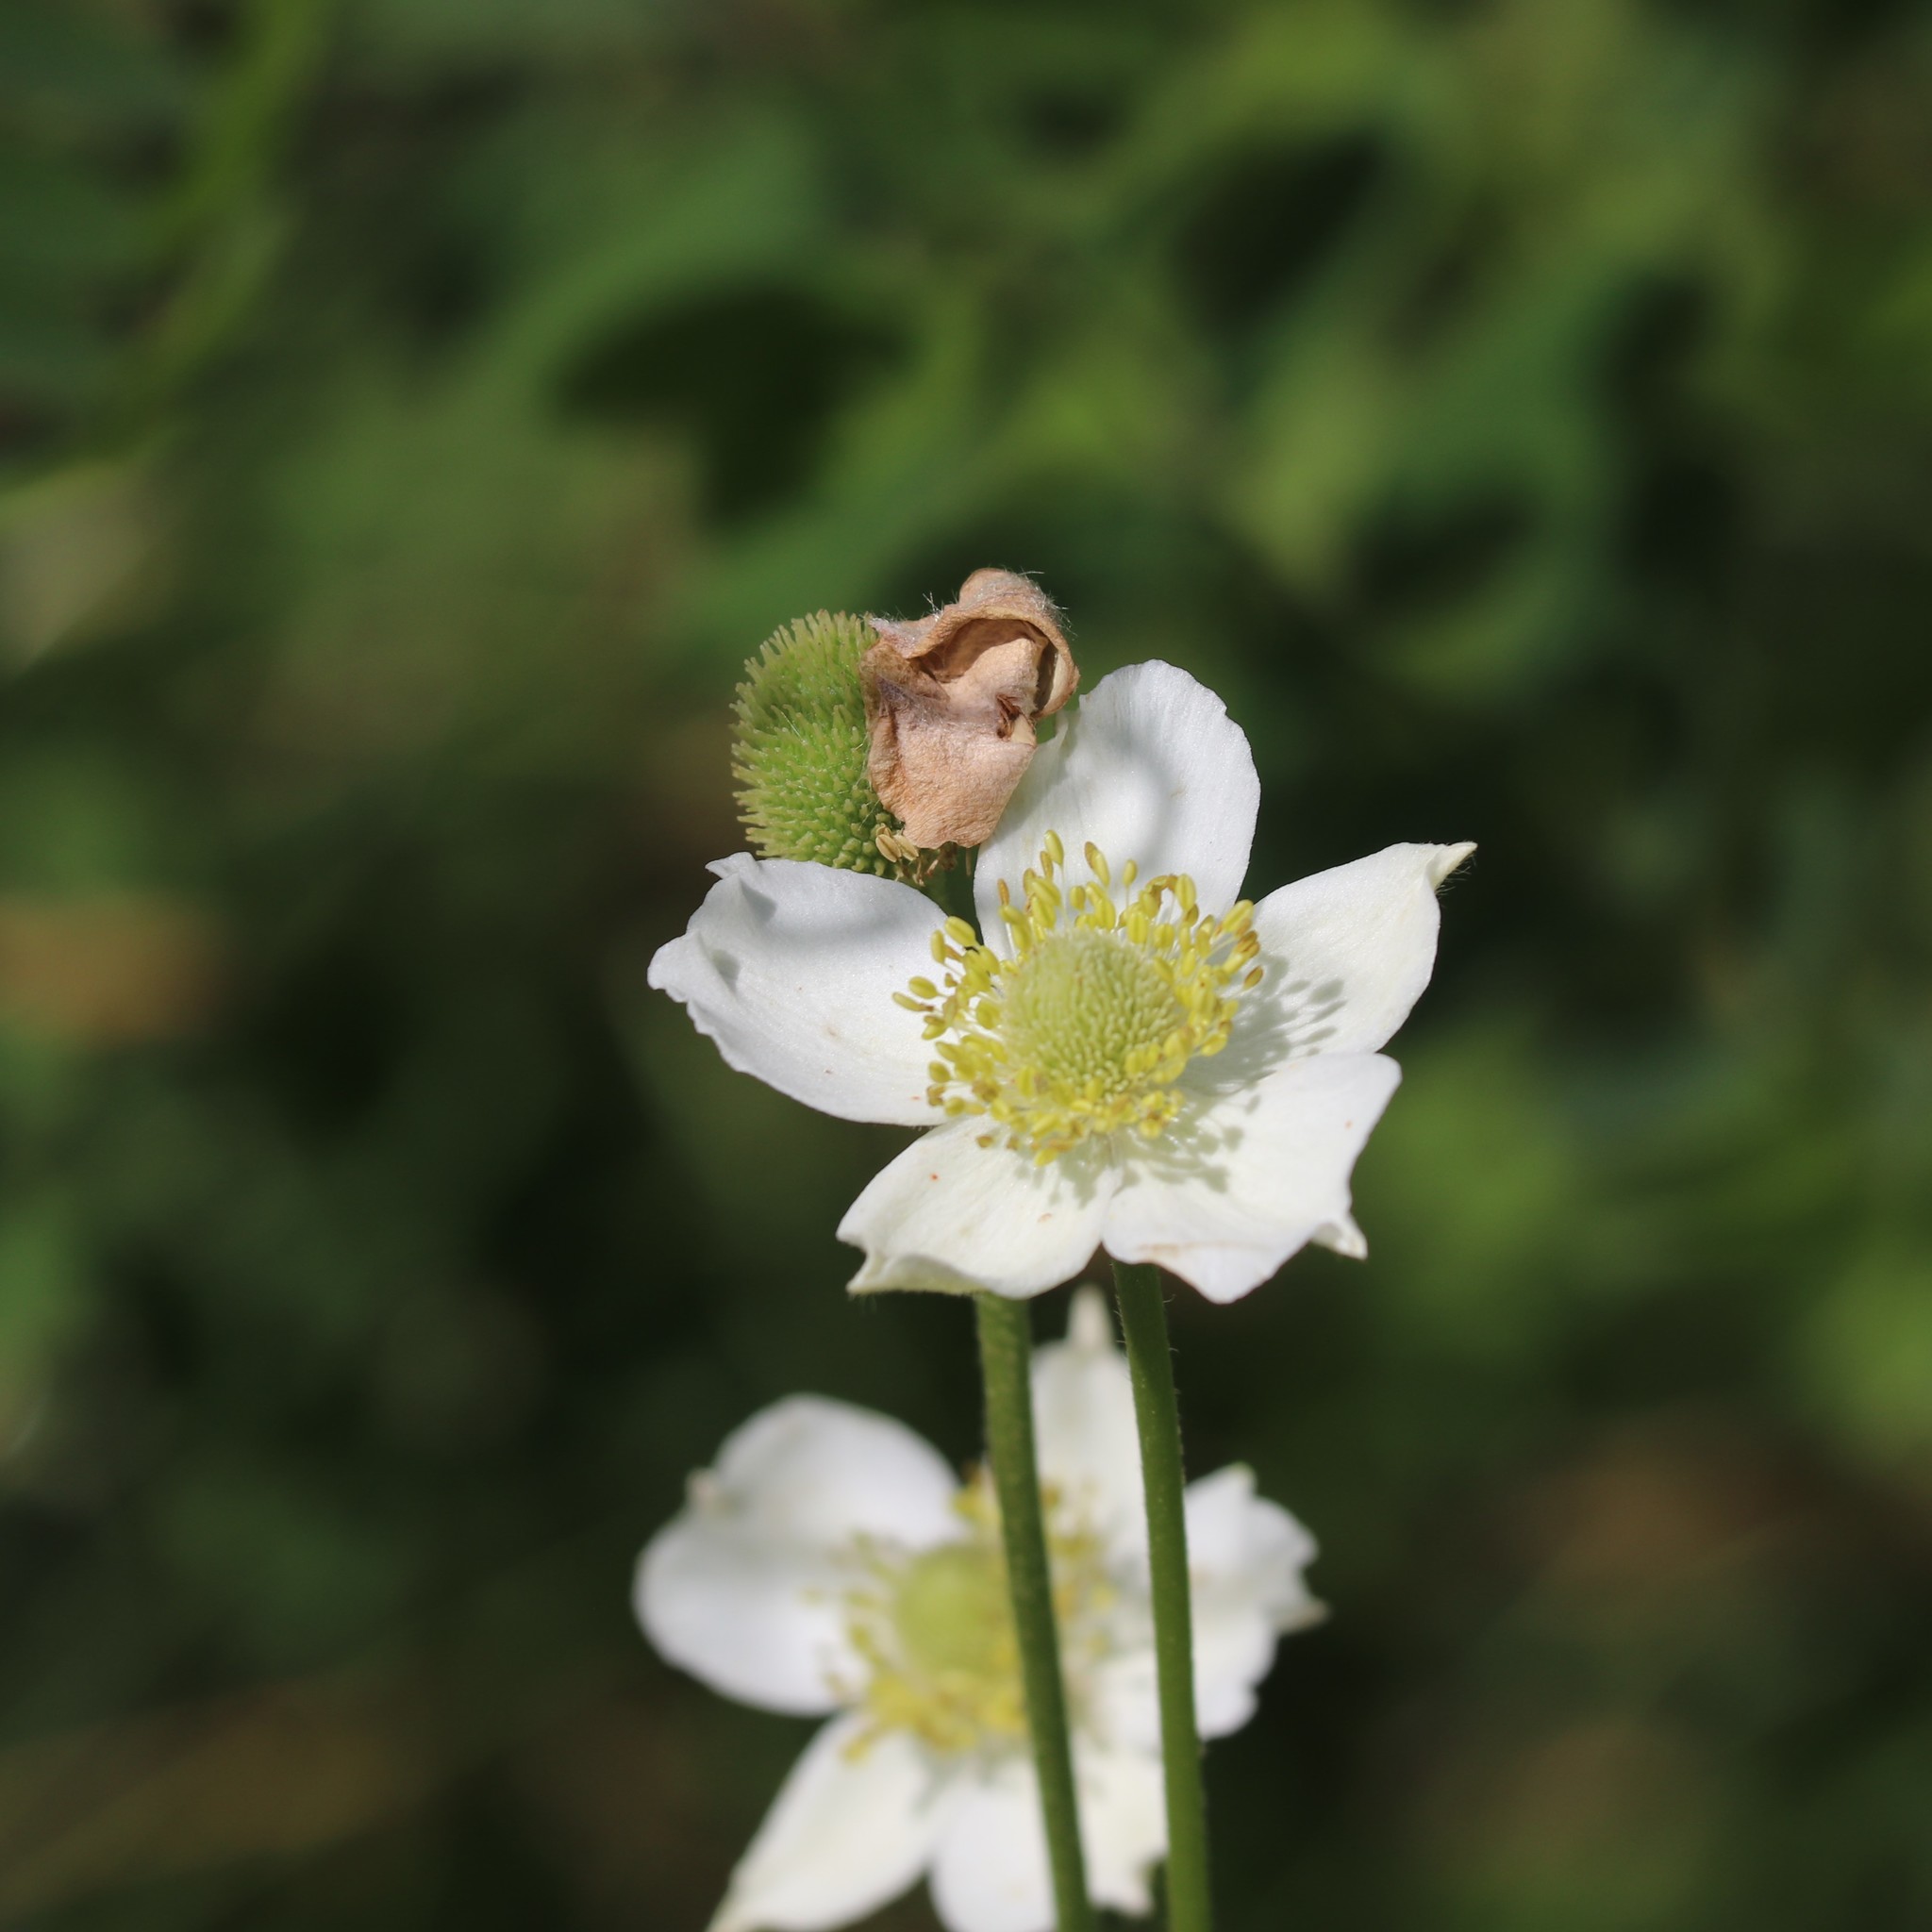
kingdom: Plantae
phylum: Tracheophyta
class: Magnoliopsida
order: Ranunculales
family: Ranunculaceae
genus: Anemone
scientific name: Anemone virginiana
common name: Tall anemone
